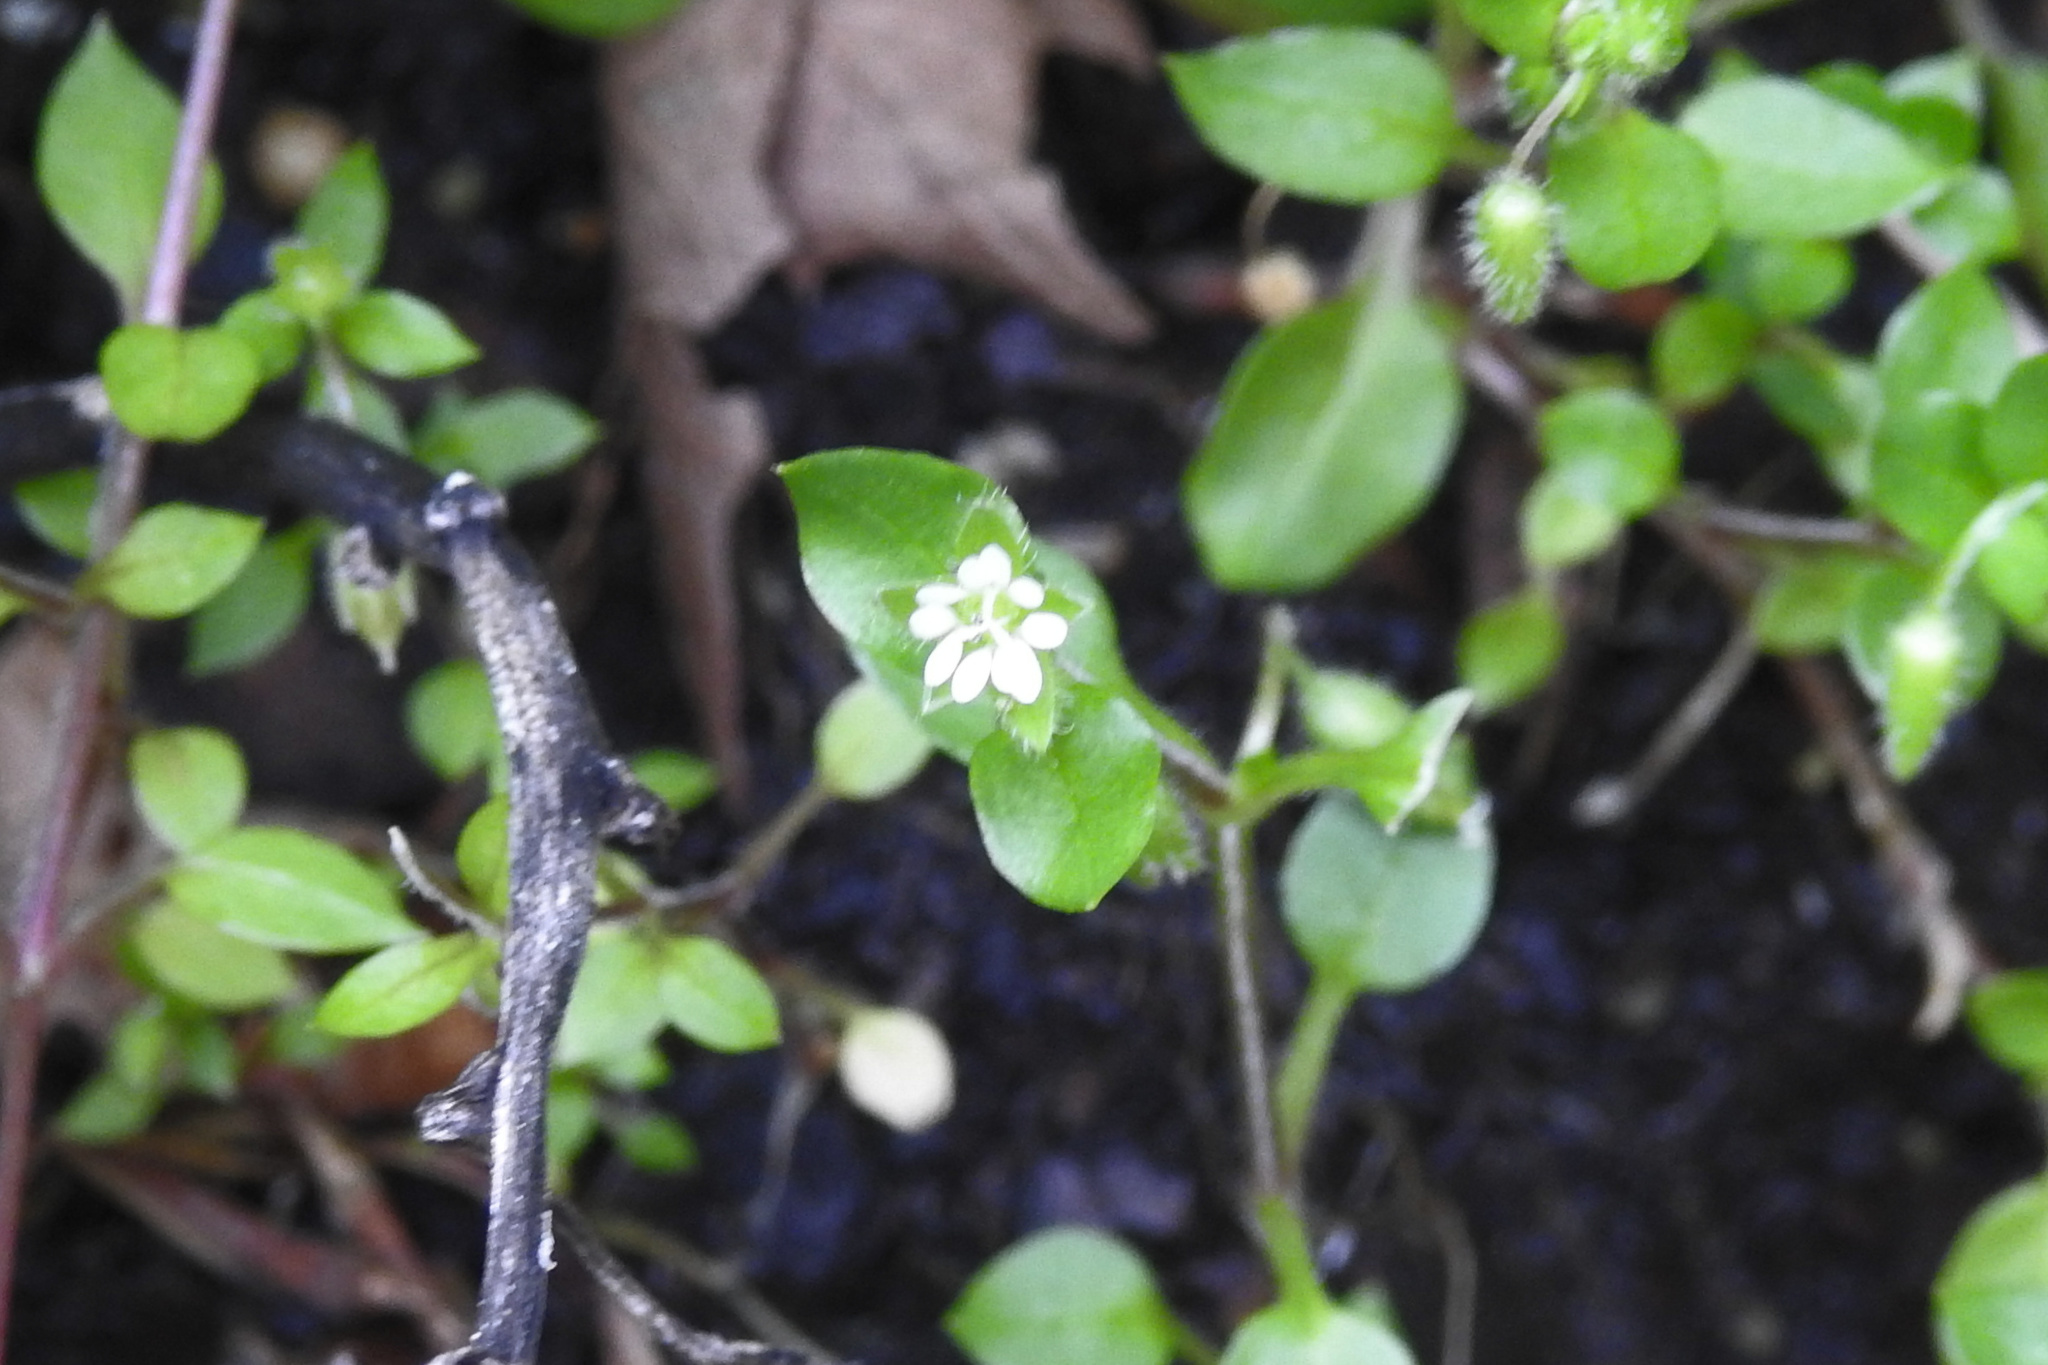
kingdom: Plantae
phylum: Tracheophyta
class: Magnoliopsida
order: Caryophyllales
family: Caryophyllaceae
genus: Stellaria
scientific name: Stellaria media
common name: Common chickweed
